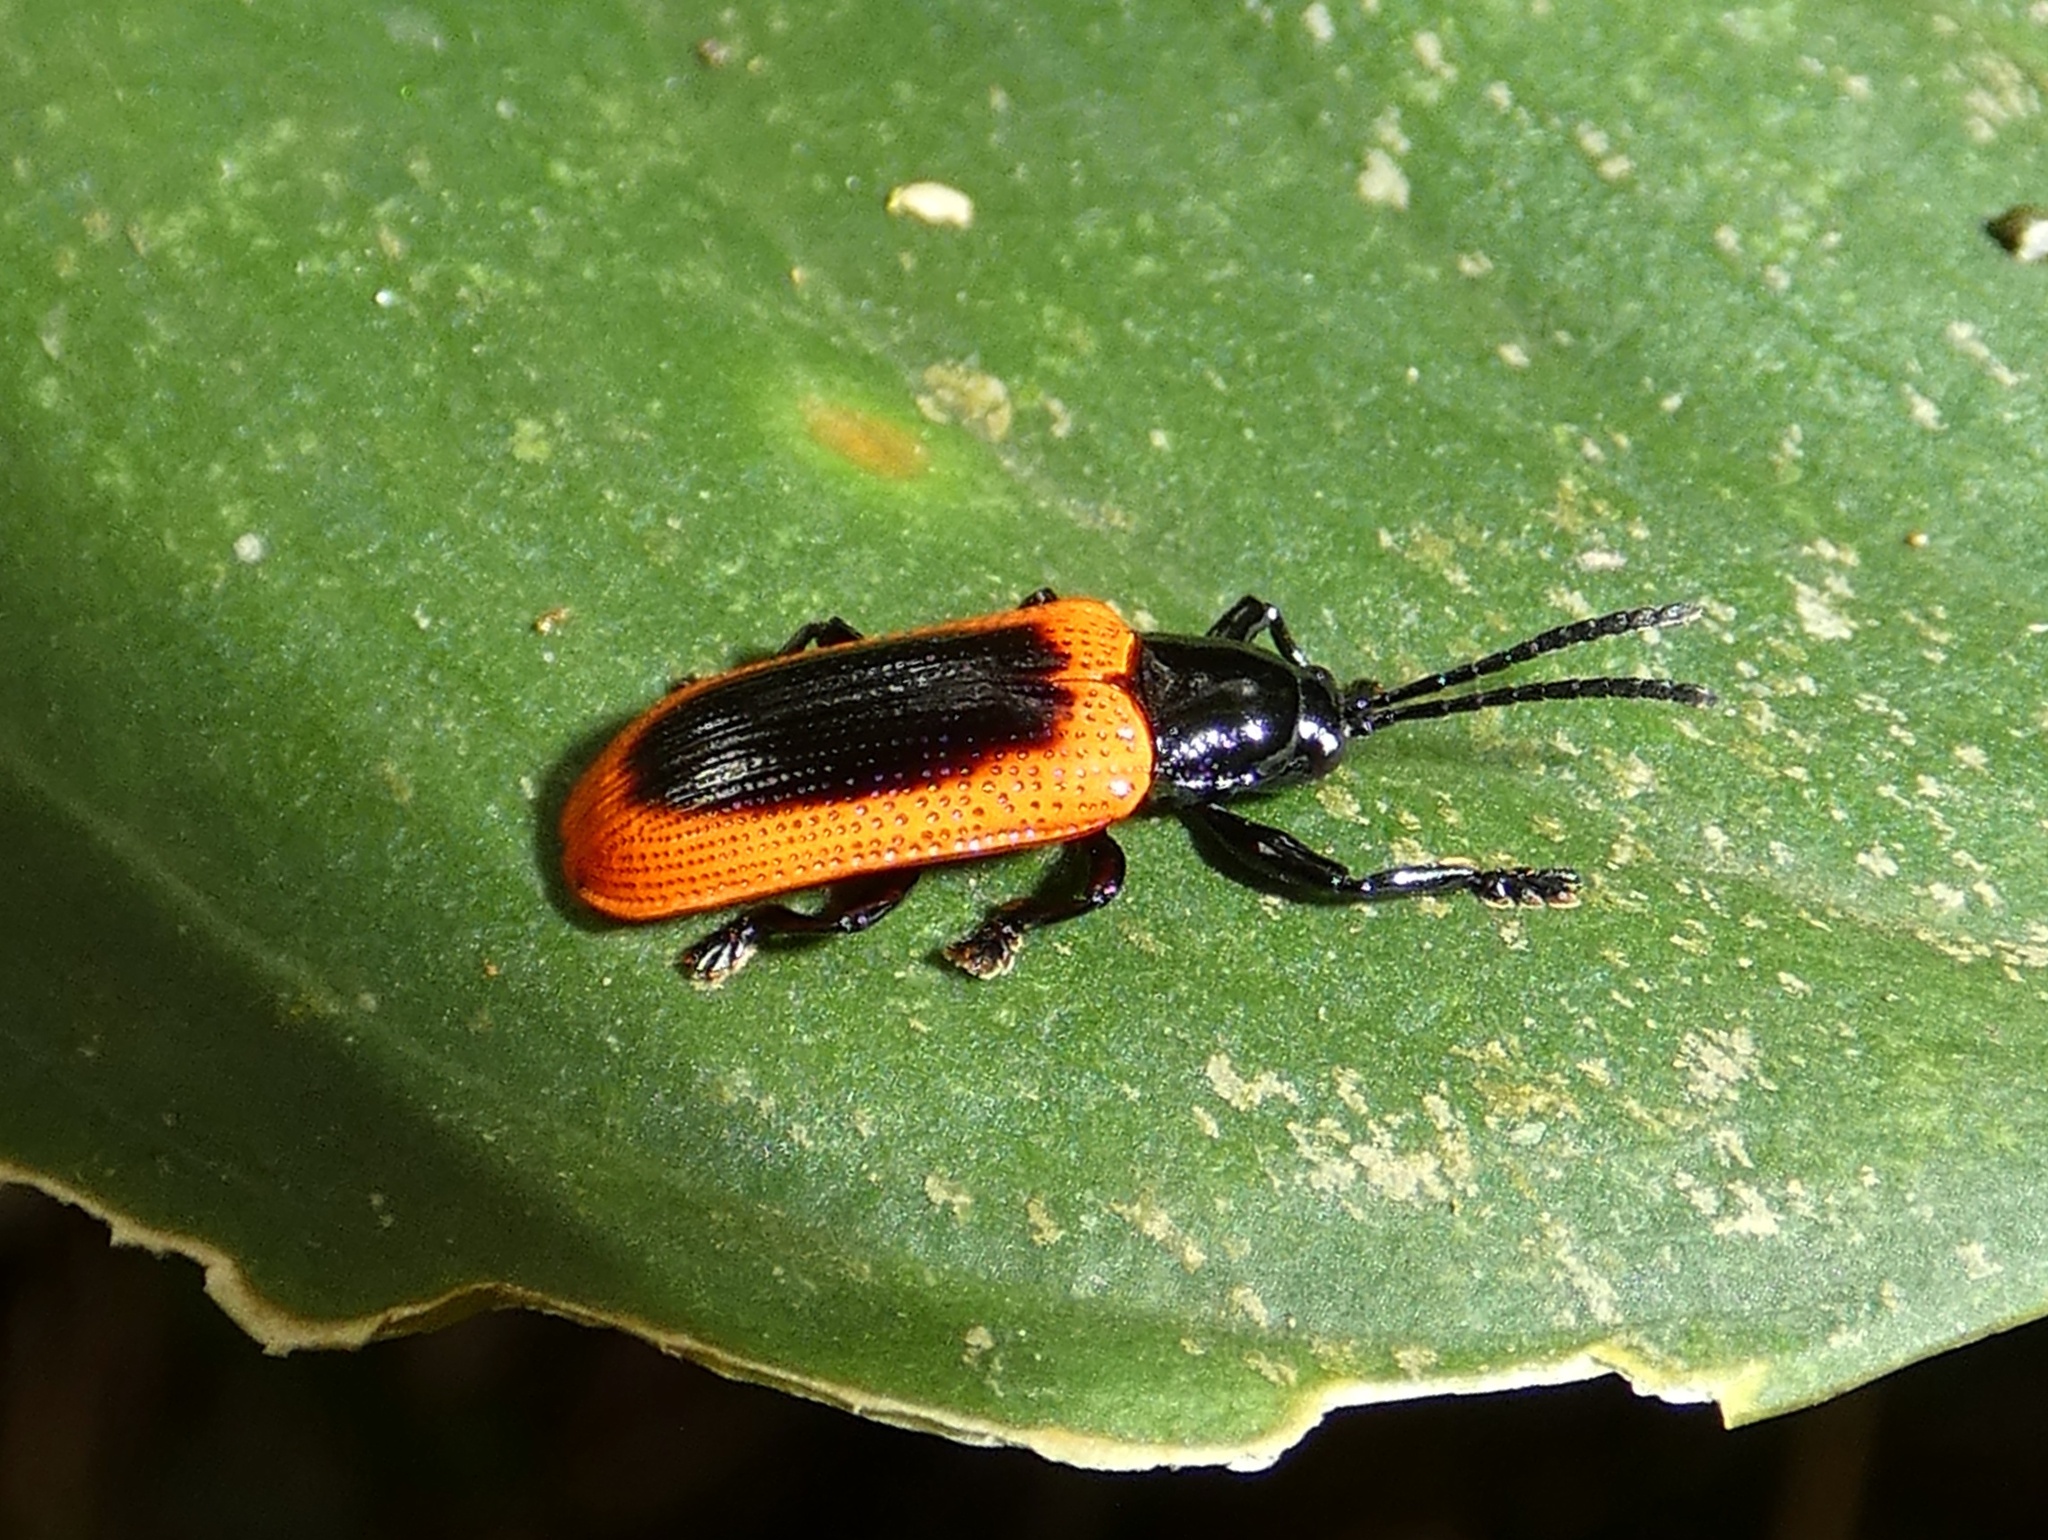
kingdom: Animalia
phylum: Arthropoda
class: Insecta
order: Coleoptera
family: Chrysomelidae
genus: Prosopodonta
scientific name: Prosopodonta limbata
